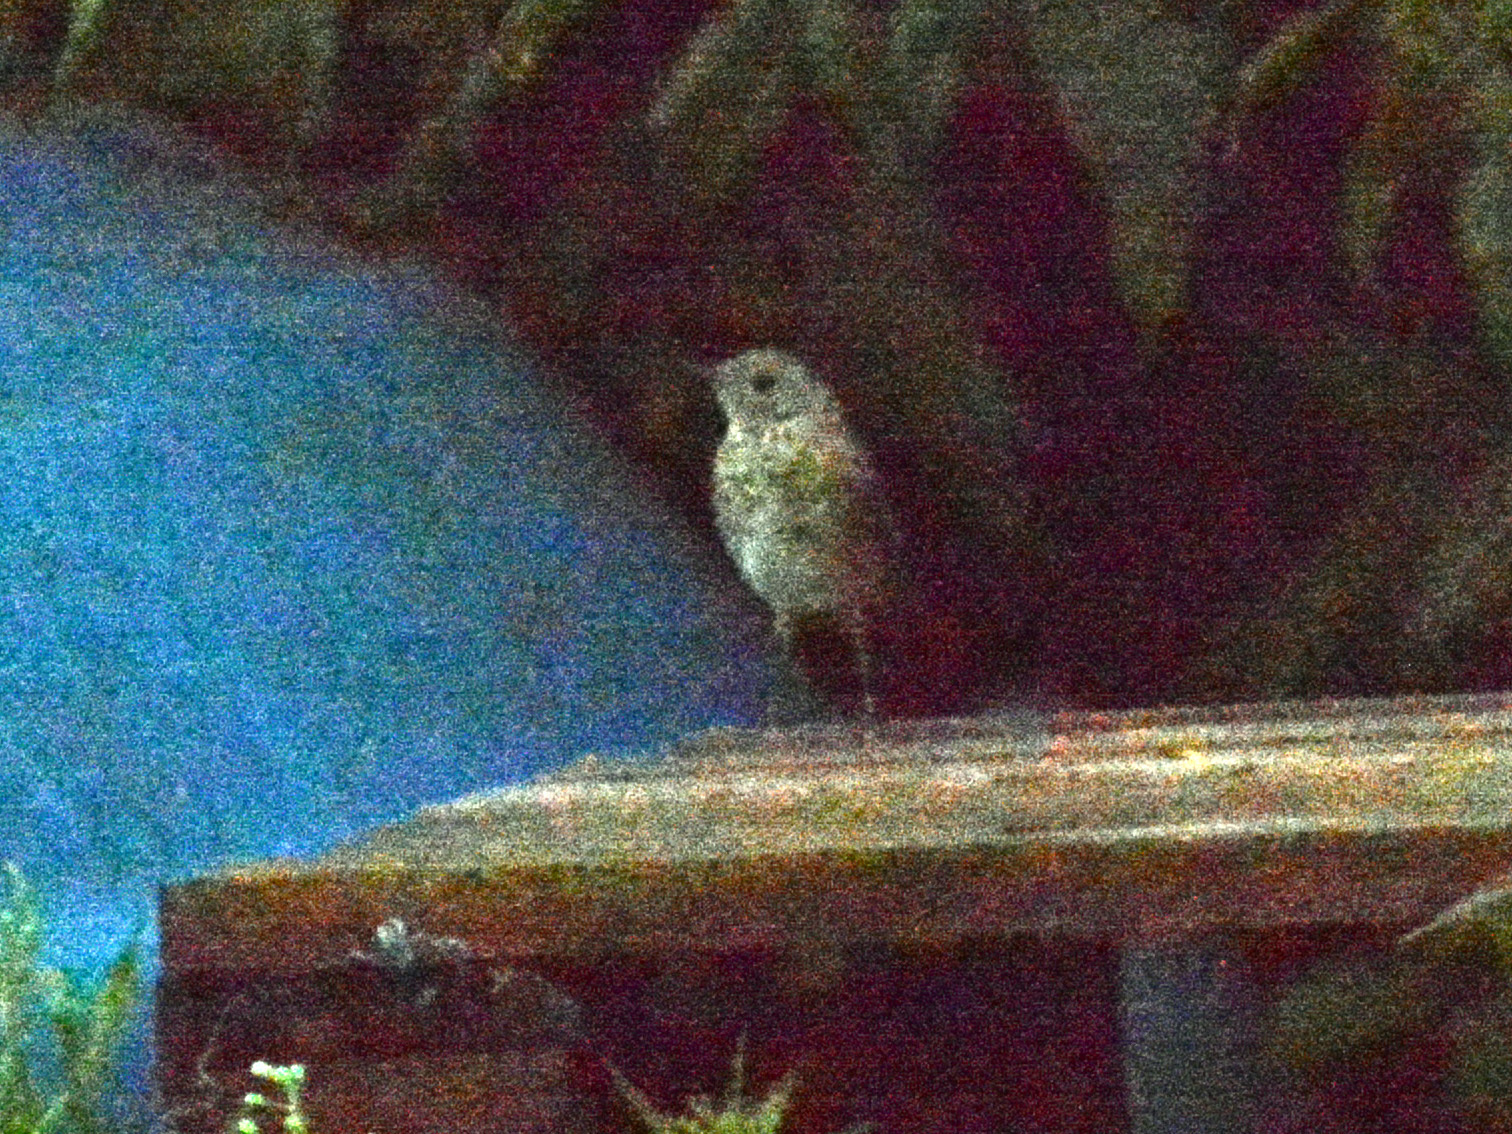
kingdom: Animalia
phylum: Chordata
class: Aves
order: Passeriformes
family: Muscicapidae
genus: Erithacus
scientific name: Erithacus rubecula
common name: European robin
